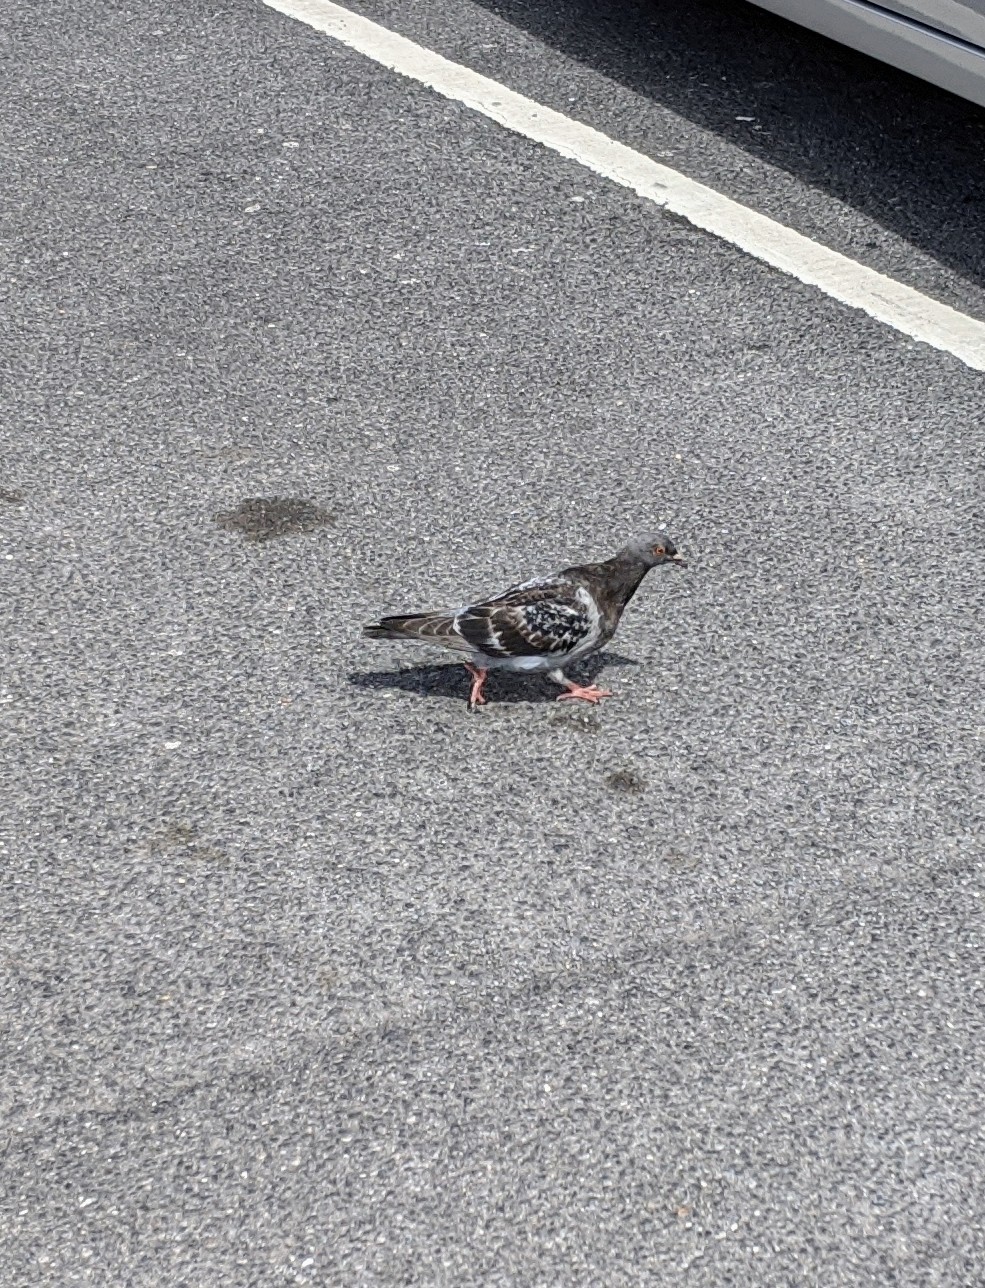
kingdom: Animalia
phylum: Chordata
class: Aves
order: Columbiformes
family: Columbidae
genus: Columba
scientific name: Columba livia
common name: Rock pigeon
